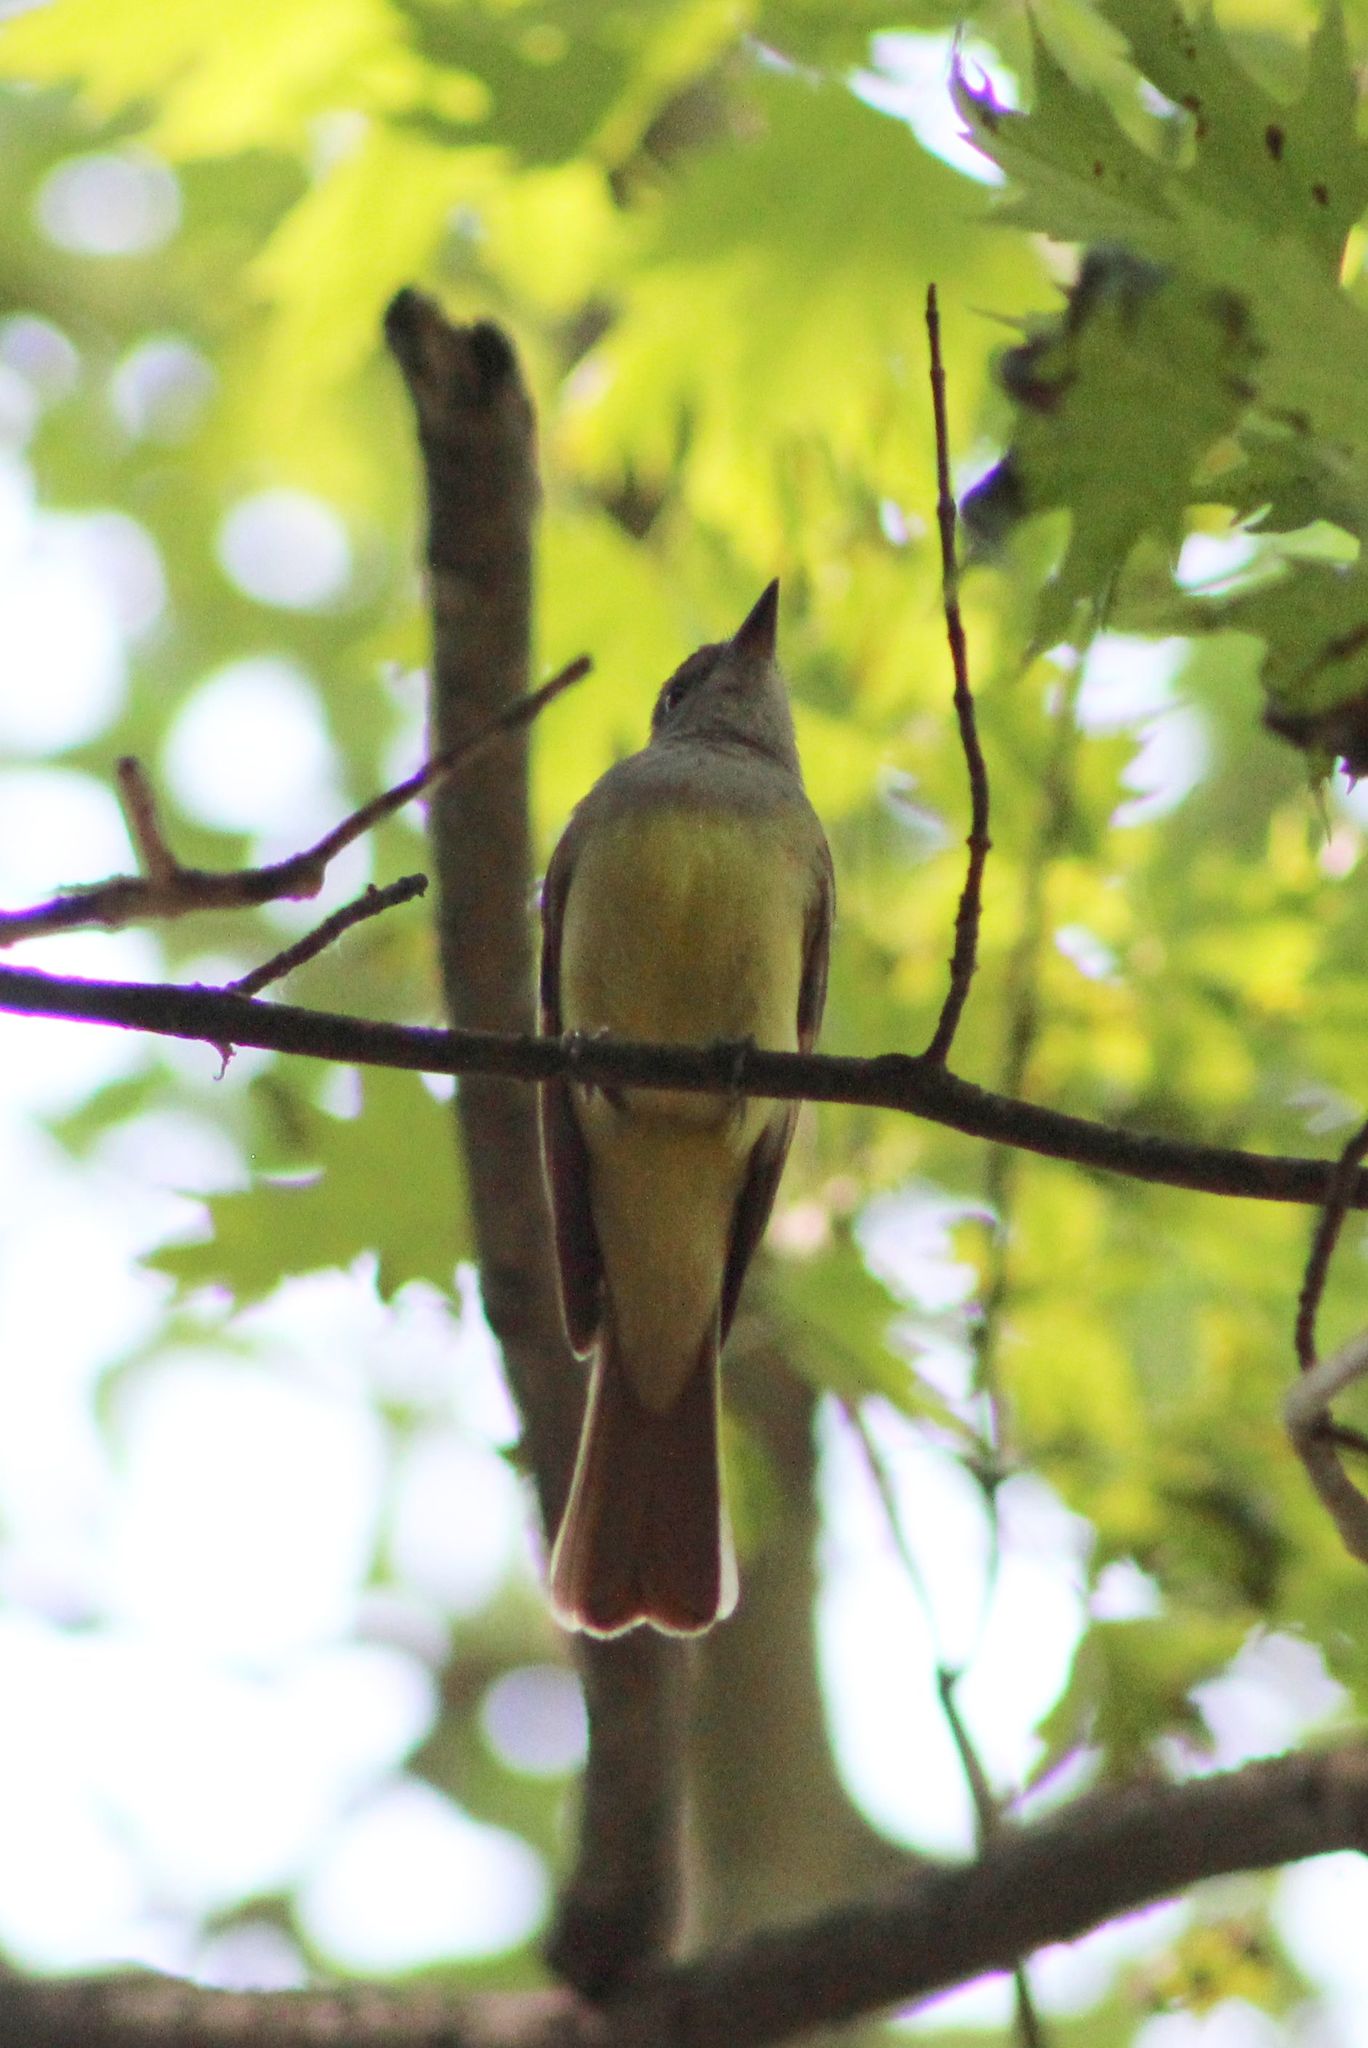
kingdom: Animalia
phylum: Chordata
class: Aves
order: Passeriformes
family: Tyrannidae
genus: Myiarchus
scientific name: Myiarchus crinitus
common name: Great crested flycatcher
